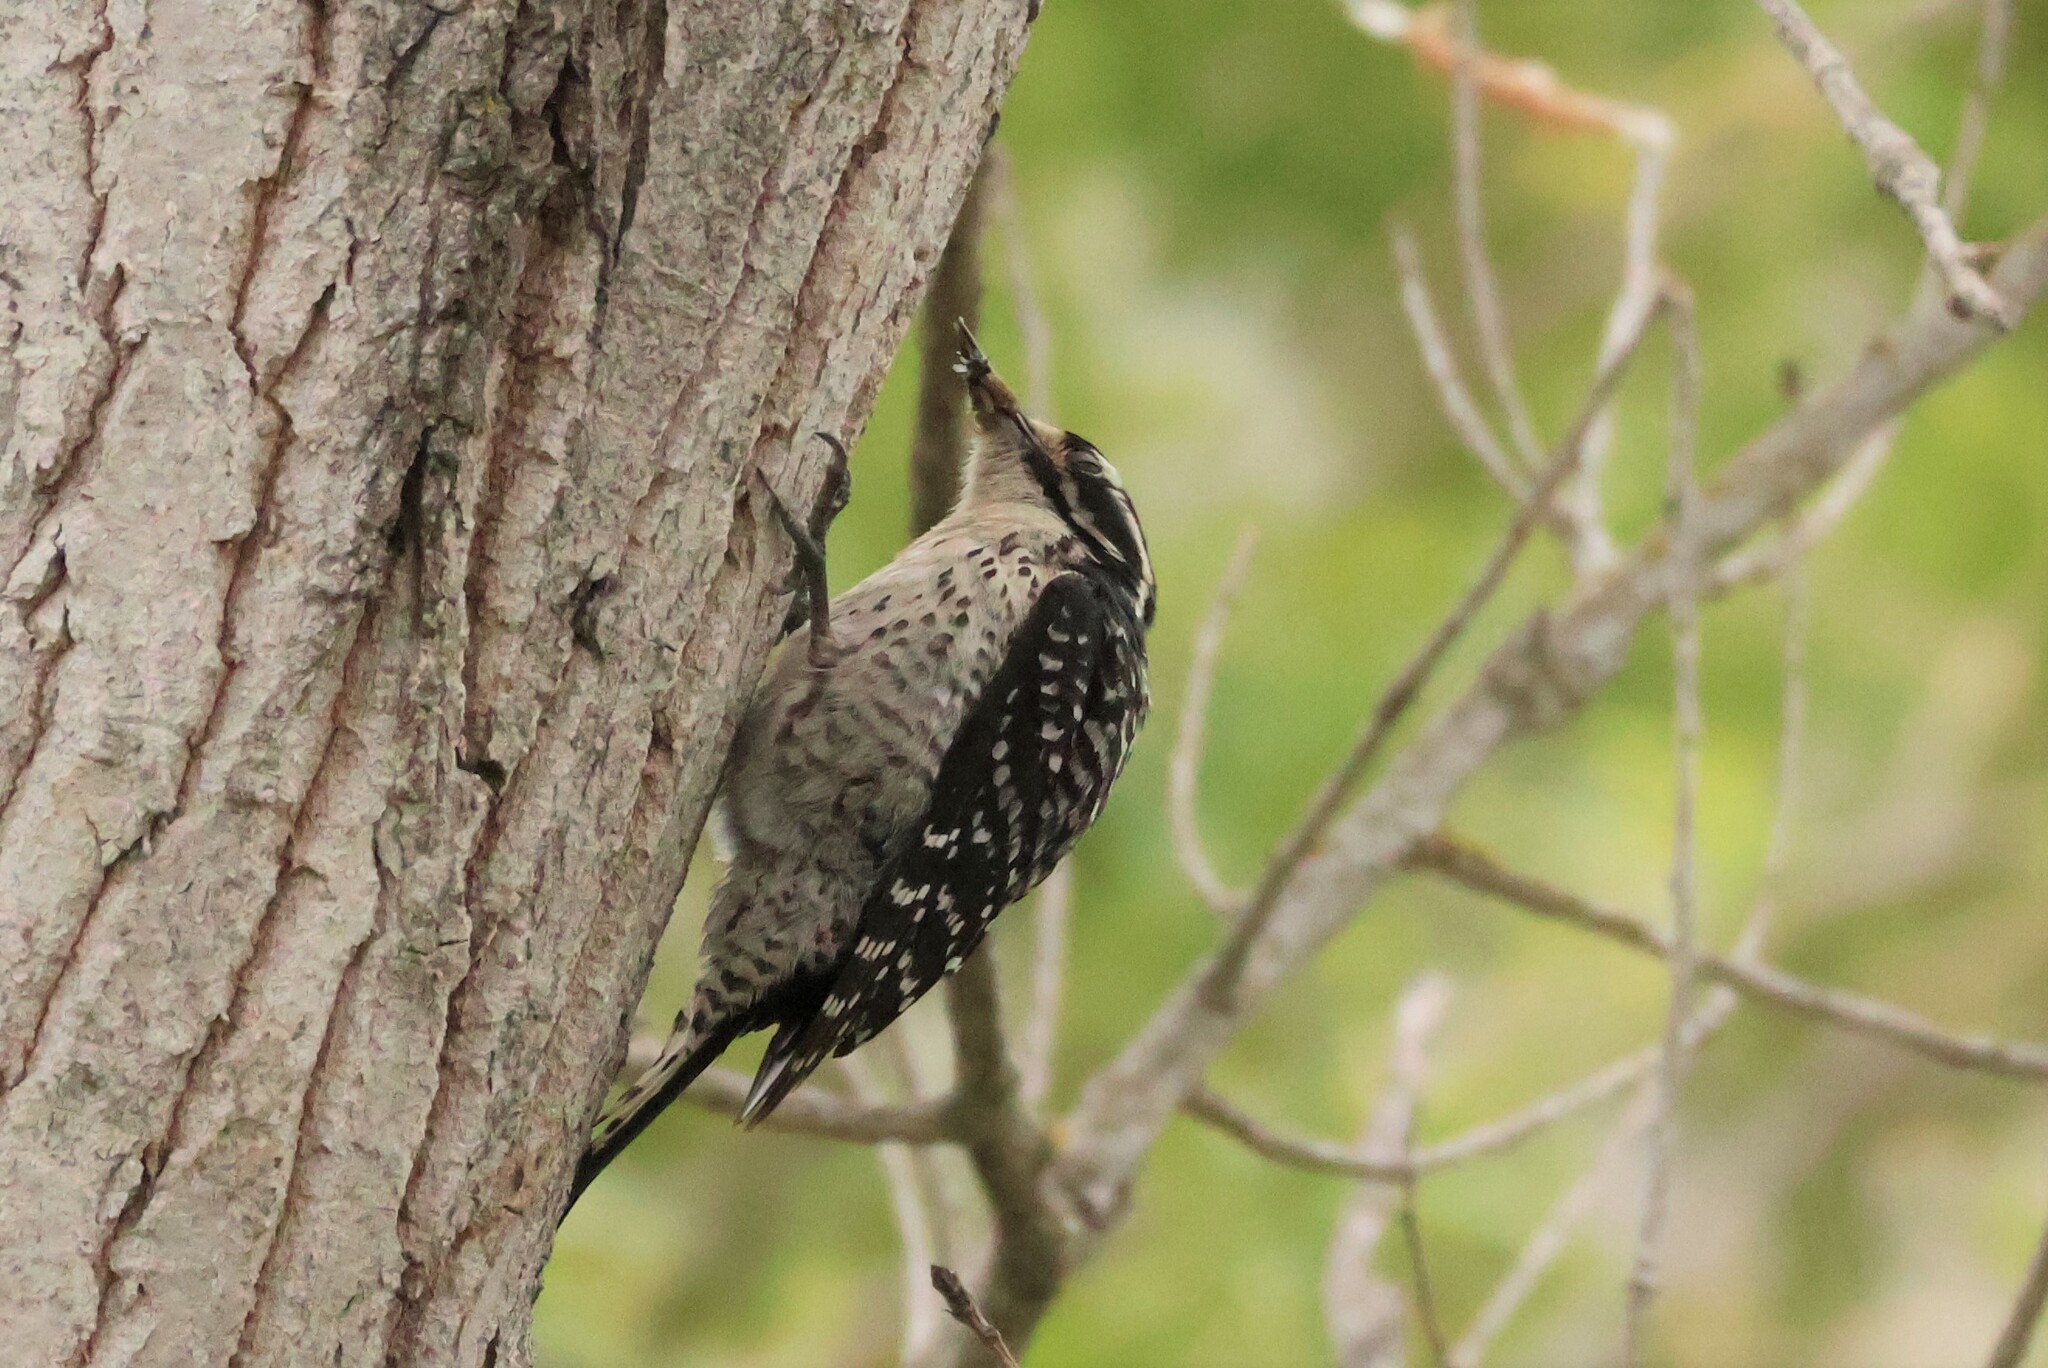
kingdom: Animalia
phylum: Chordata
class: Aves
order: Piciformes
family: Picidae
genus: Dryobates
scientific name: Dryobates nuttallii
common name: Nuttall's woodpecker
